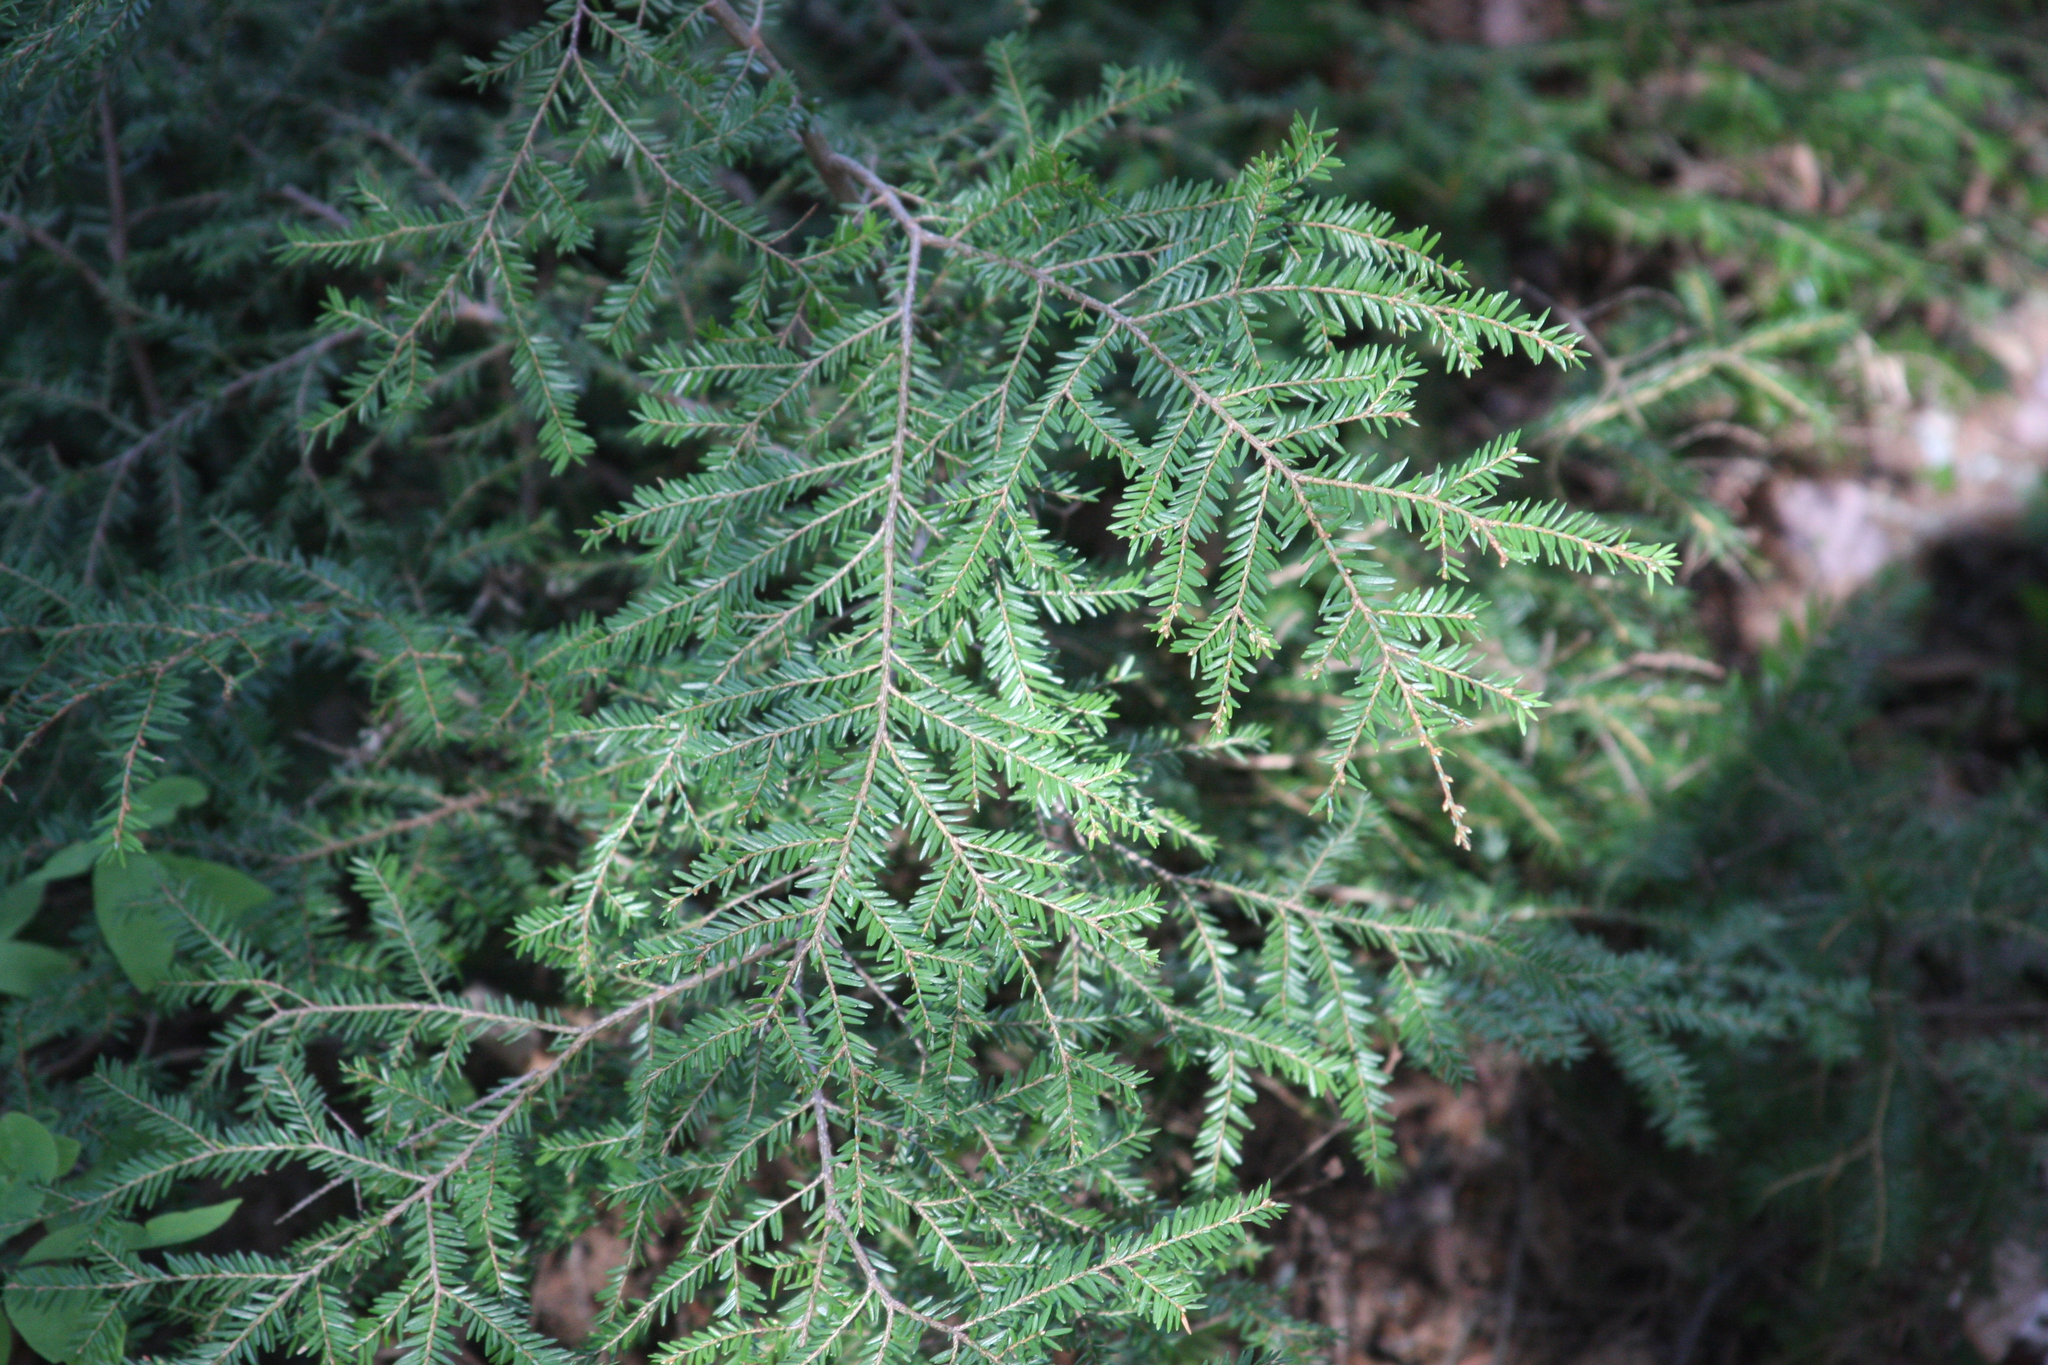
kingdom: Plantae
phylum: Tracheophyta
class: Pinopsida
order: Pinales
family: Pinaceae
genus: Tsuga
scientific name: Tsuga canadensis
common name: Eastern hemlock
